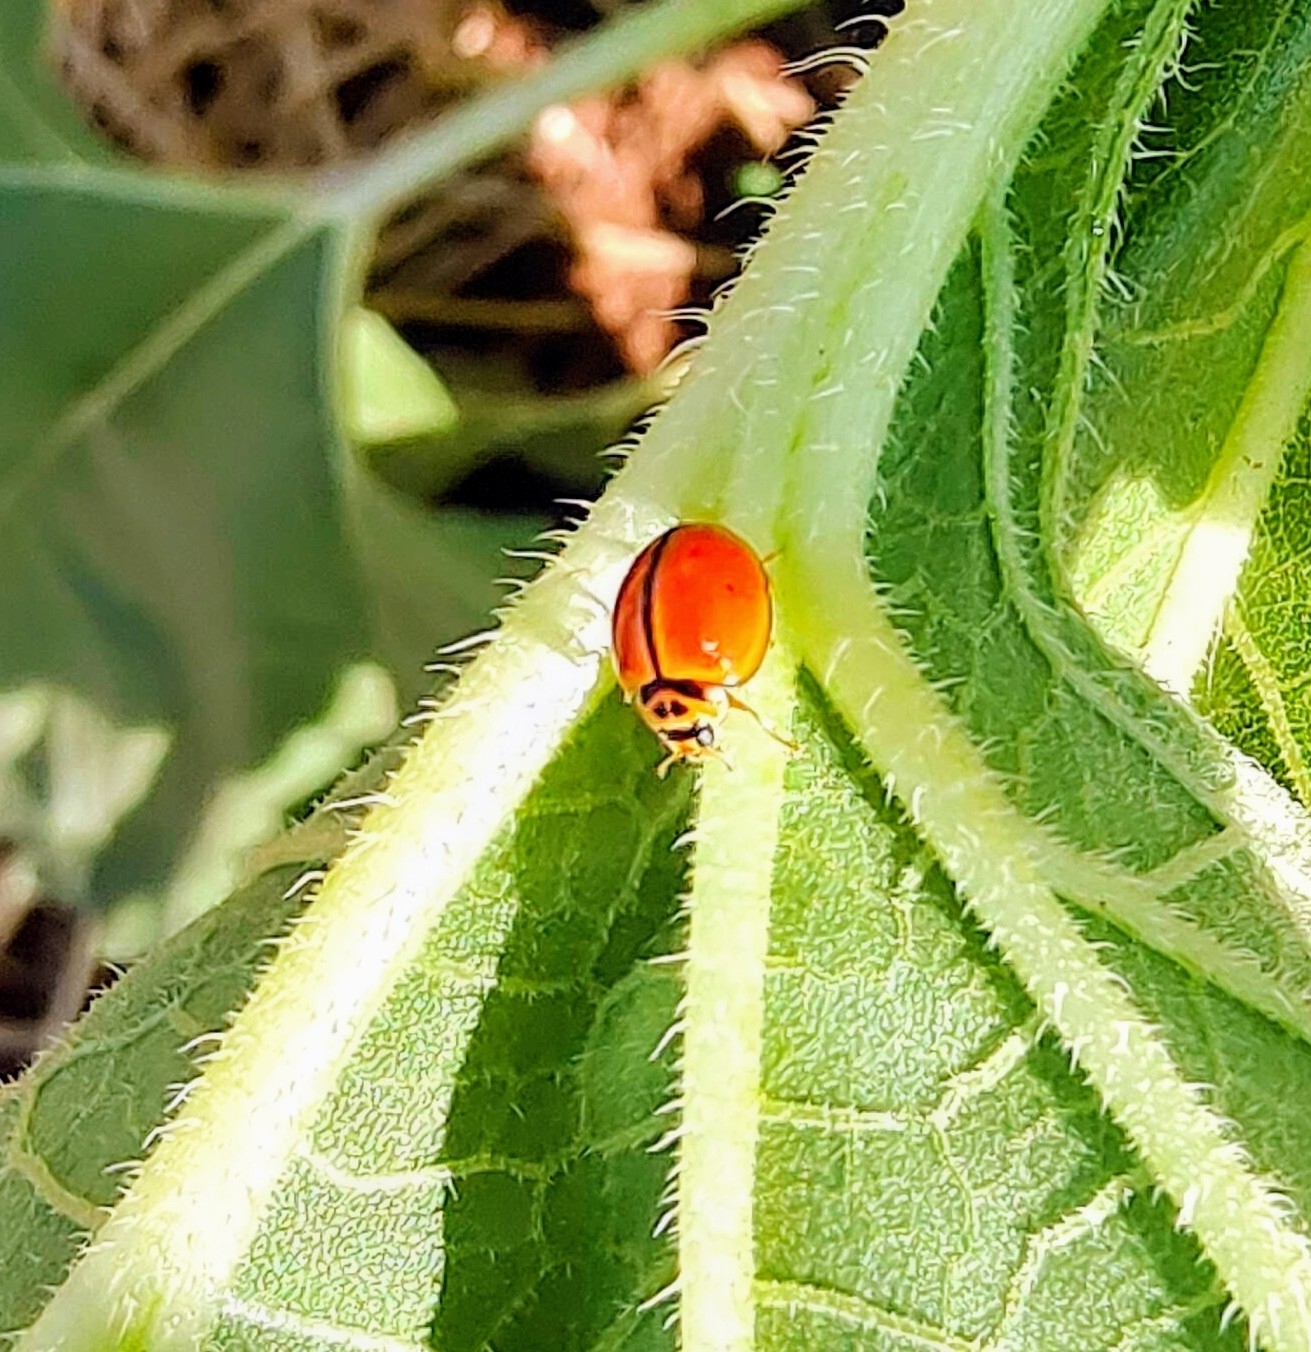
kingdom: Animalia
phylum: Arthropoda
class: Insecta
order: Coleoptera
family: Coccinellidae
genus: Micraspis
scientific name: Micraspis discolor
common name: Lady beetle
